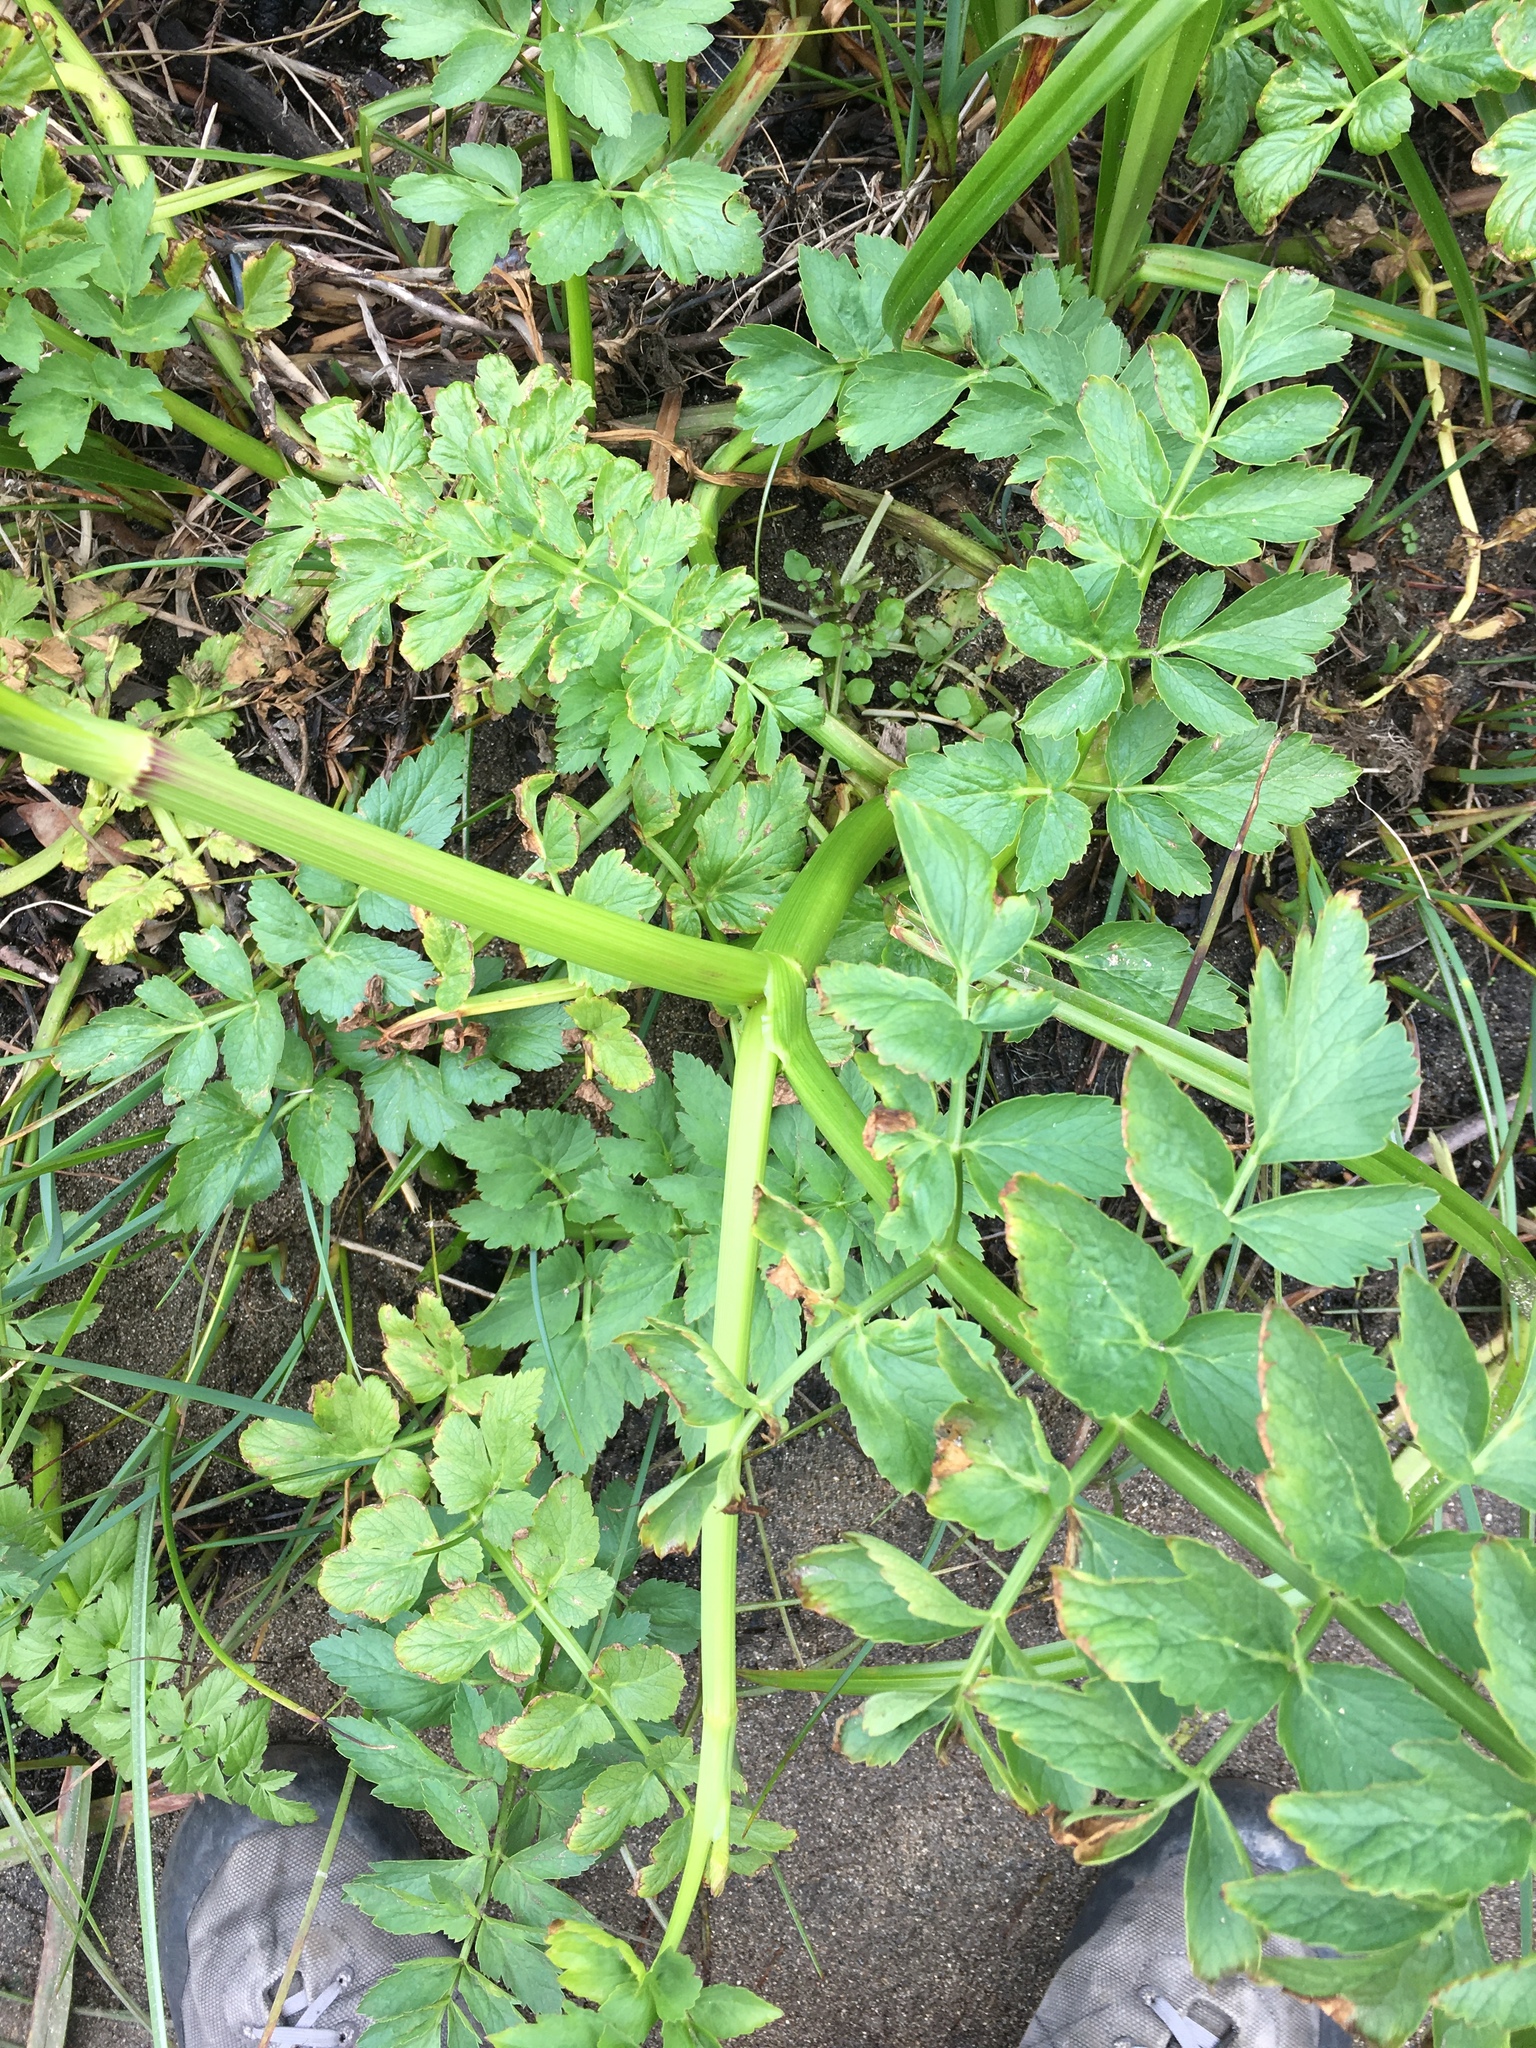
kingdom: Plantae
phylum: Tracheophyta
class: Magnoliopsida
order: Apiales
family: Apiaceae
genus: Oenanthe
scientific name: Oenanthe sarmentosa
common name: American water-parsley
